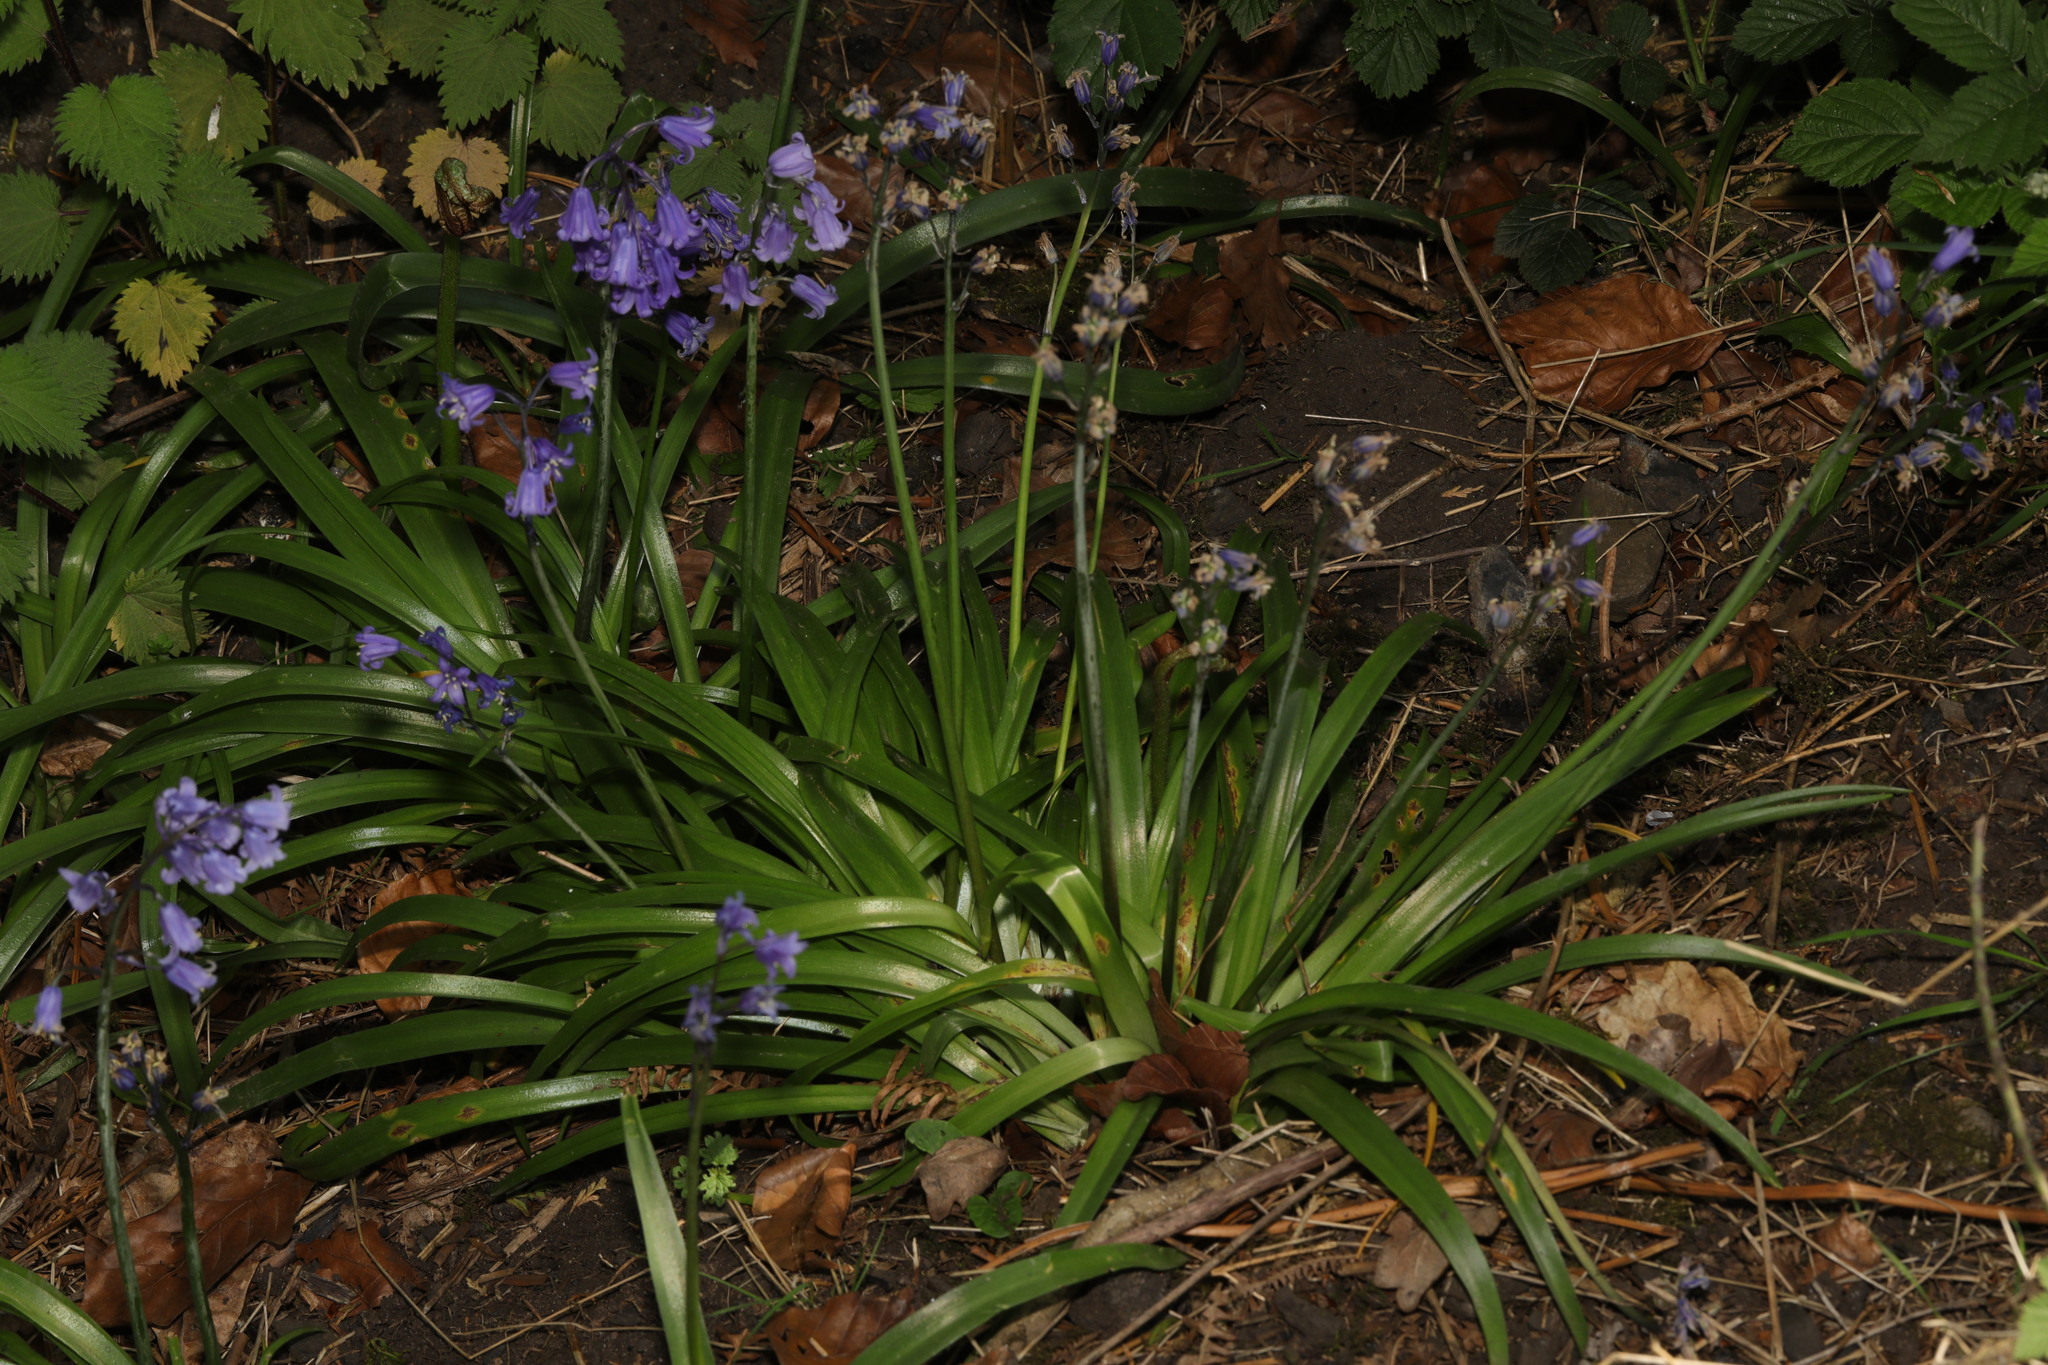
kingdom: Plantae
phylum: Tracheophyta
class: Liliopsida
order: Asparagales
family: Asparagaceae
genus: Hyacinthoides
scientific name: Hyacinthoides massartiana
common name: Hyacinthoides
